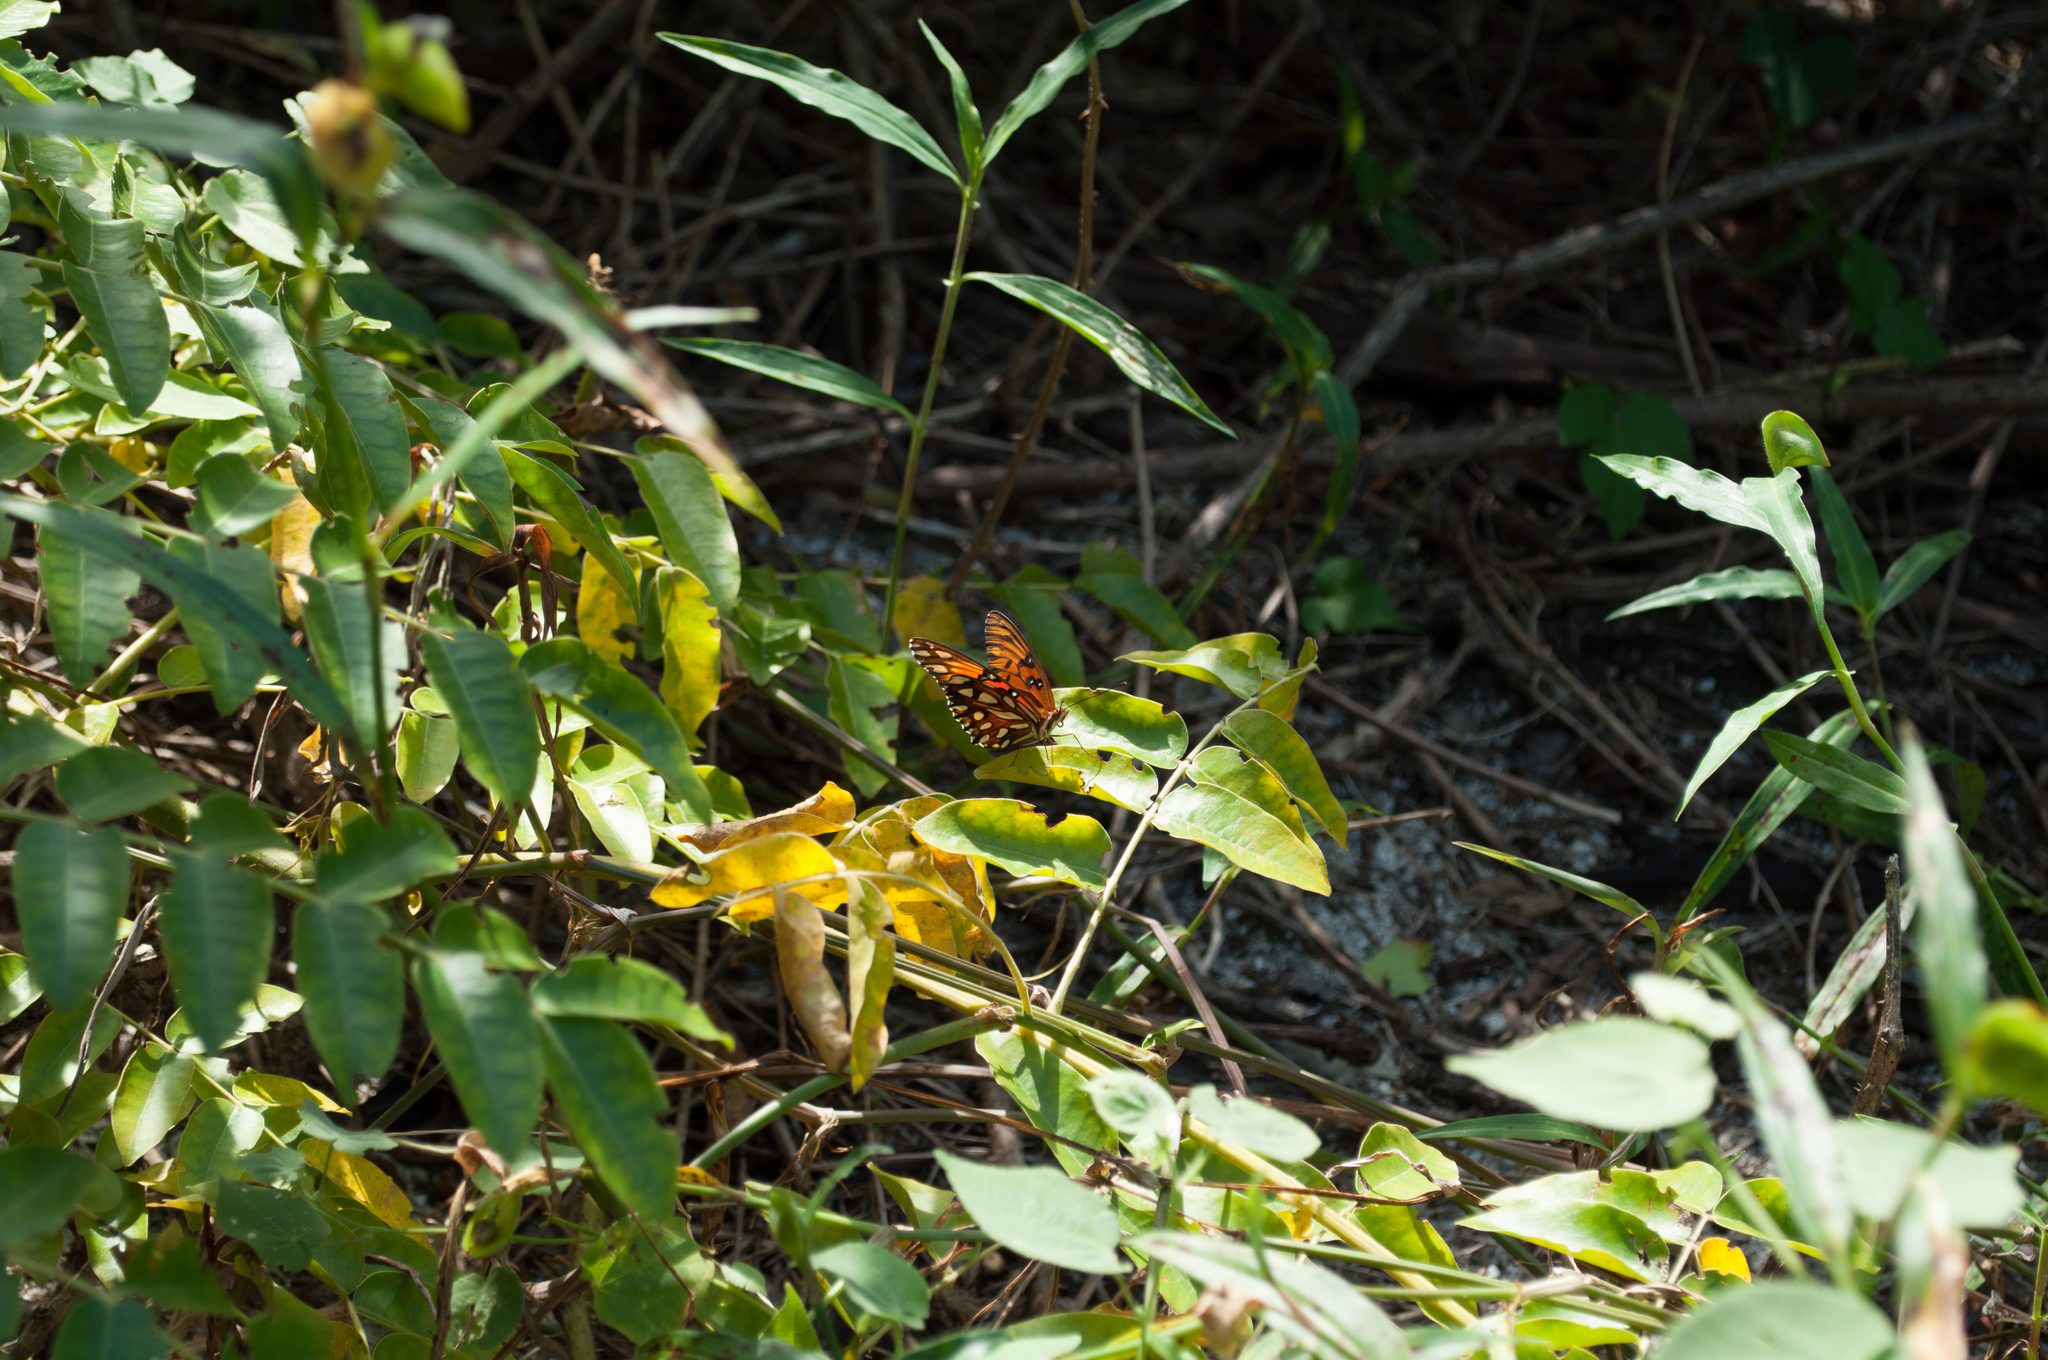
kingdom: Animalia
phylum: Arthropoda
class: Insecta
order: Lepidoptera
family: Nymphalidae
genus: Dione
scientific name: Dione vanillae
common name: Gulf fritillary
